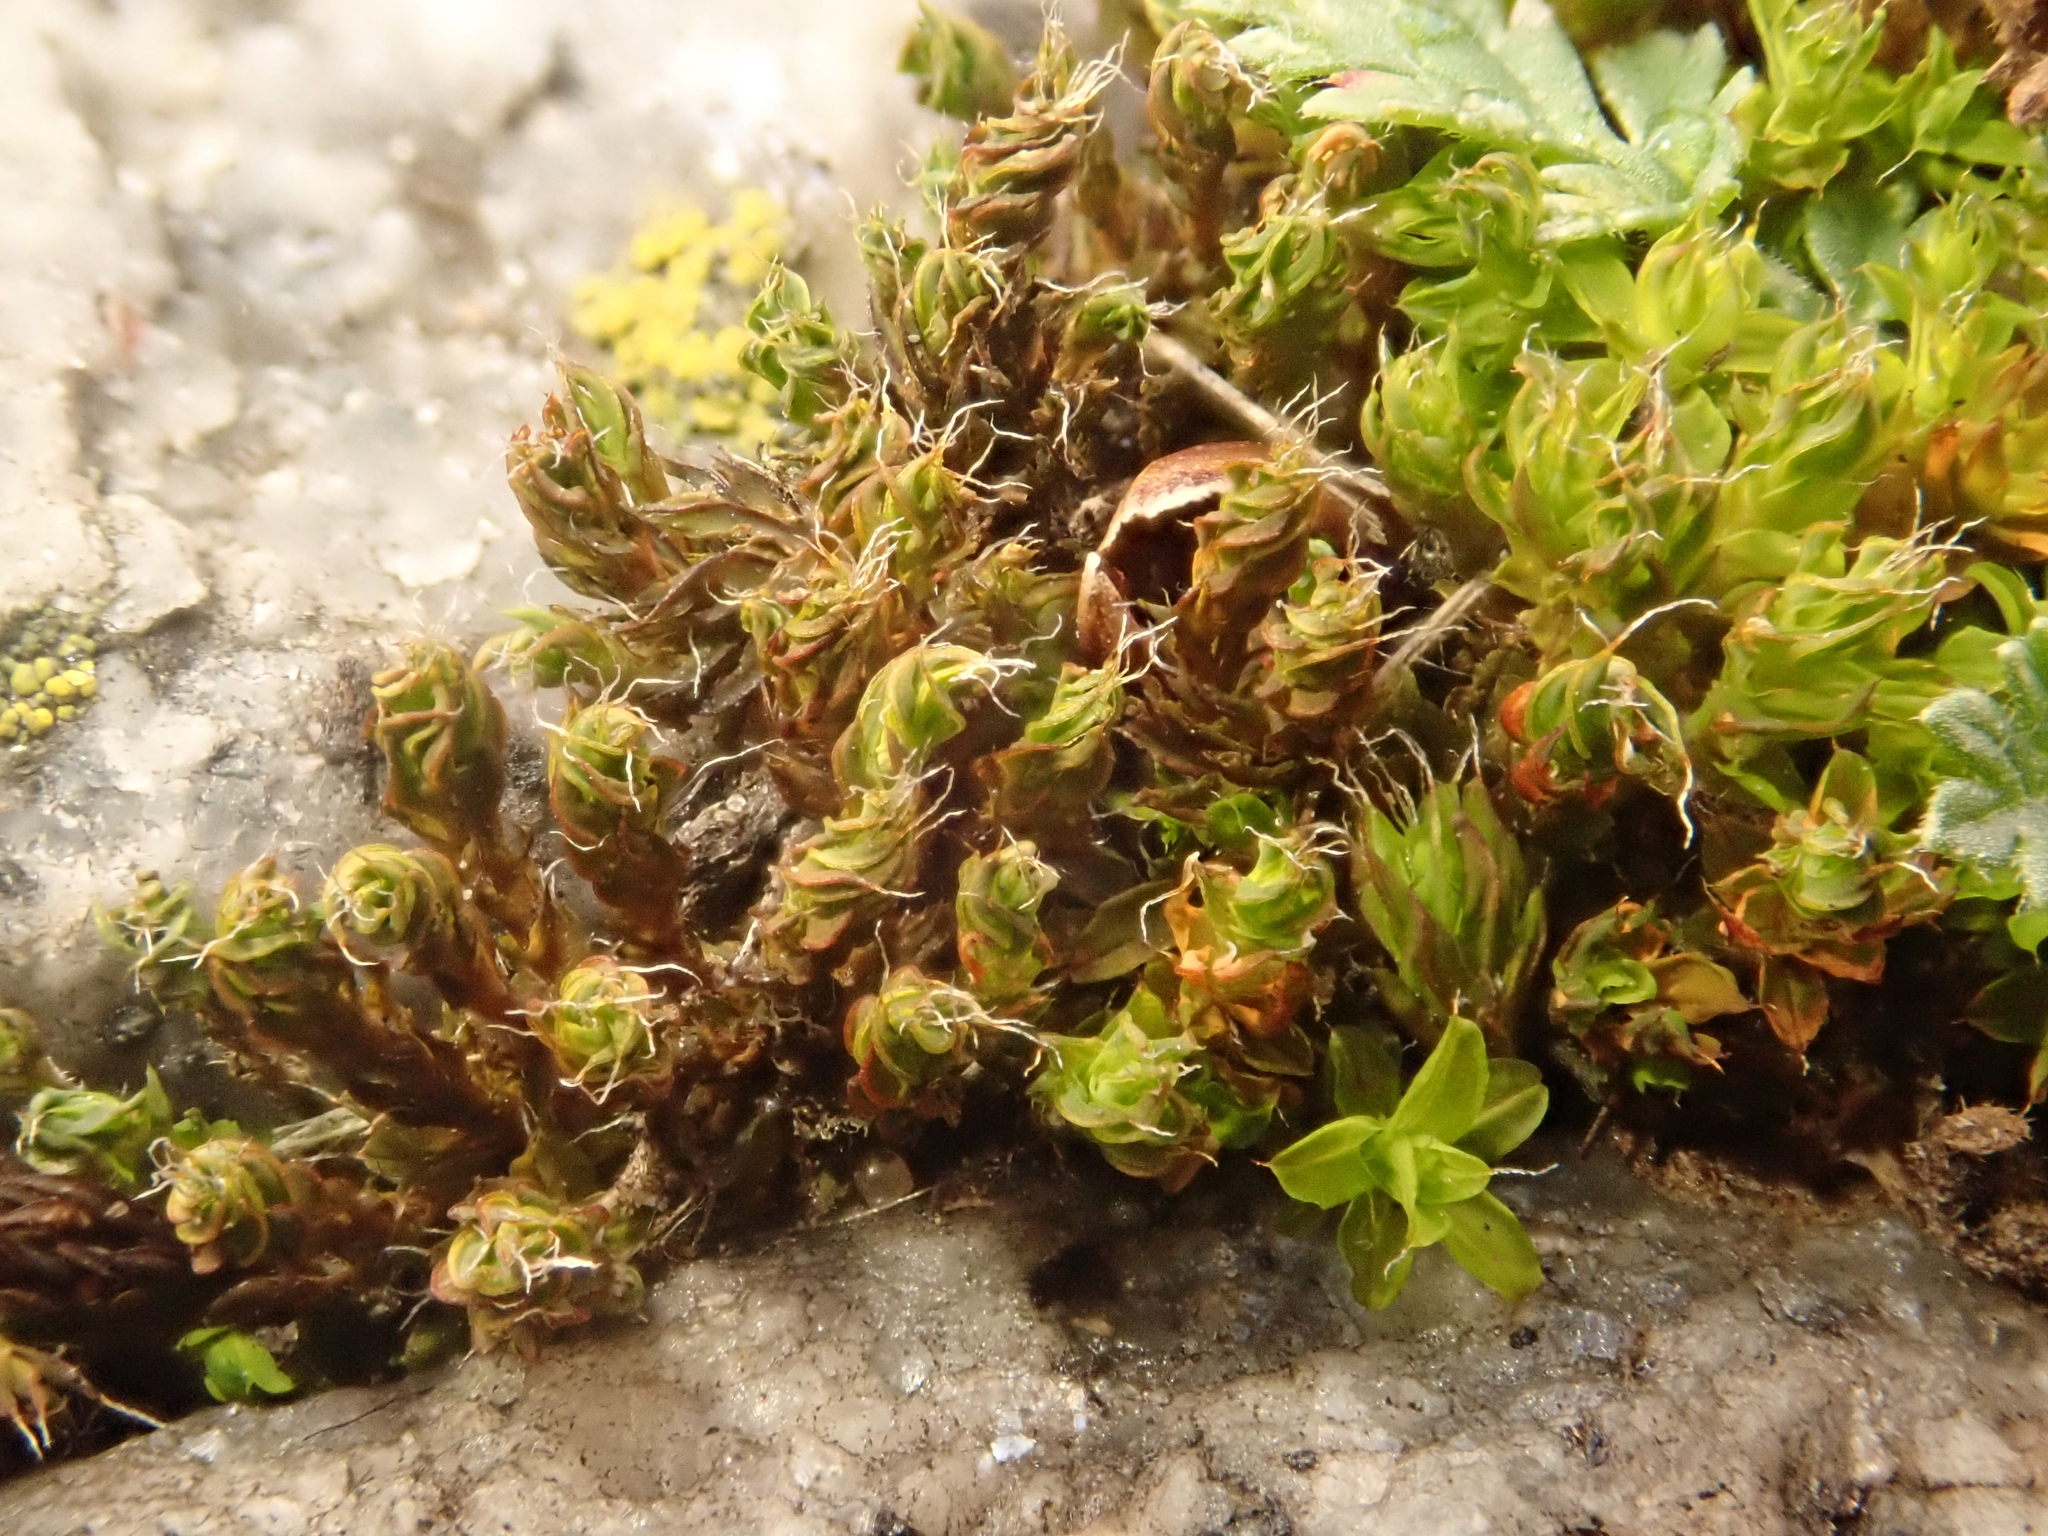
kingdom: Plantae
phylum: Bryophyta
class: Bryopsida
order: Pottiales
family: Pottiaceae
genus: Syntrichia
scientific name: Syntrichia ruralis
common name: Sidewalk screw moss
